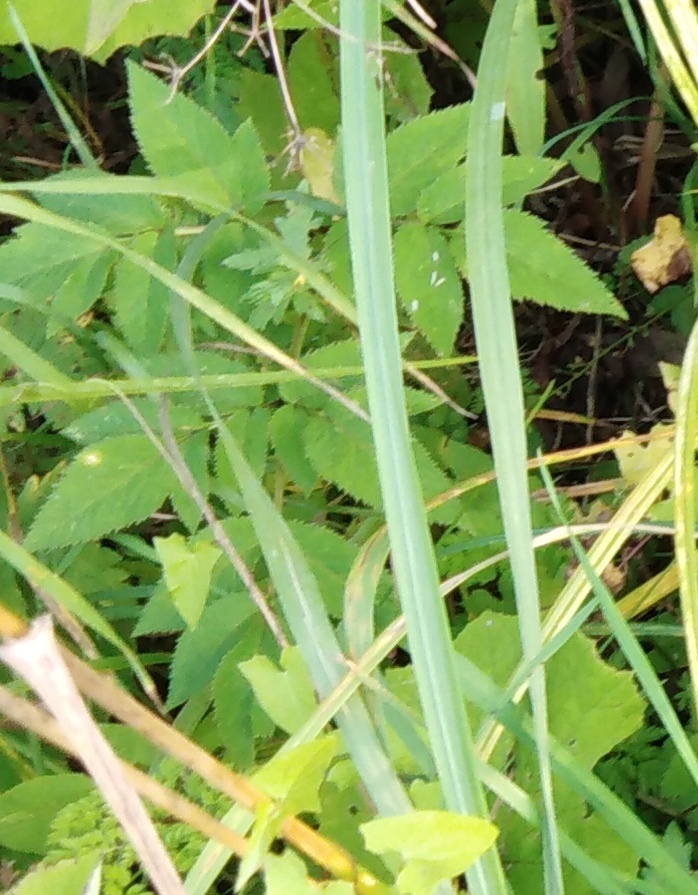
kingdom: Plantae
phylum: Tracheophyta
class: Magnoliopsida
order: Apiales
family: Apiaceae
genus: Angelica
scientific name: Angelica sylvestris
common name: Wild angelica
